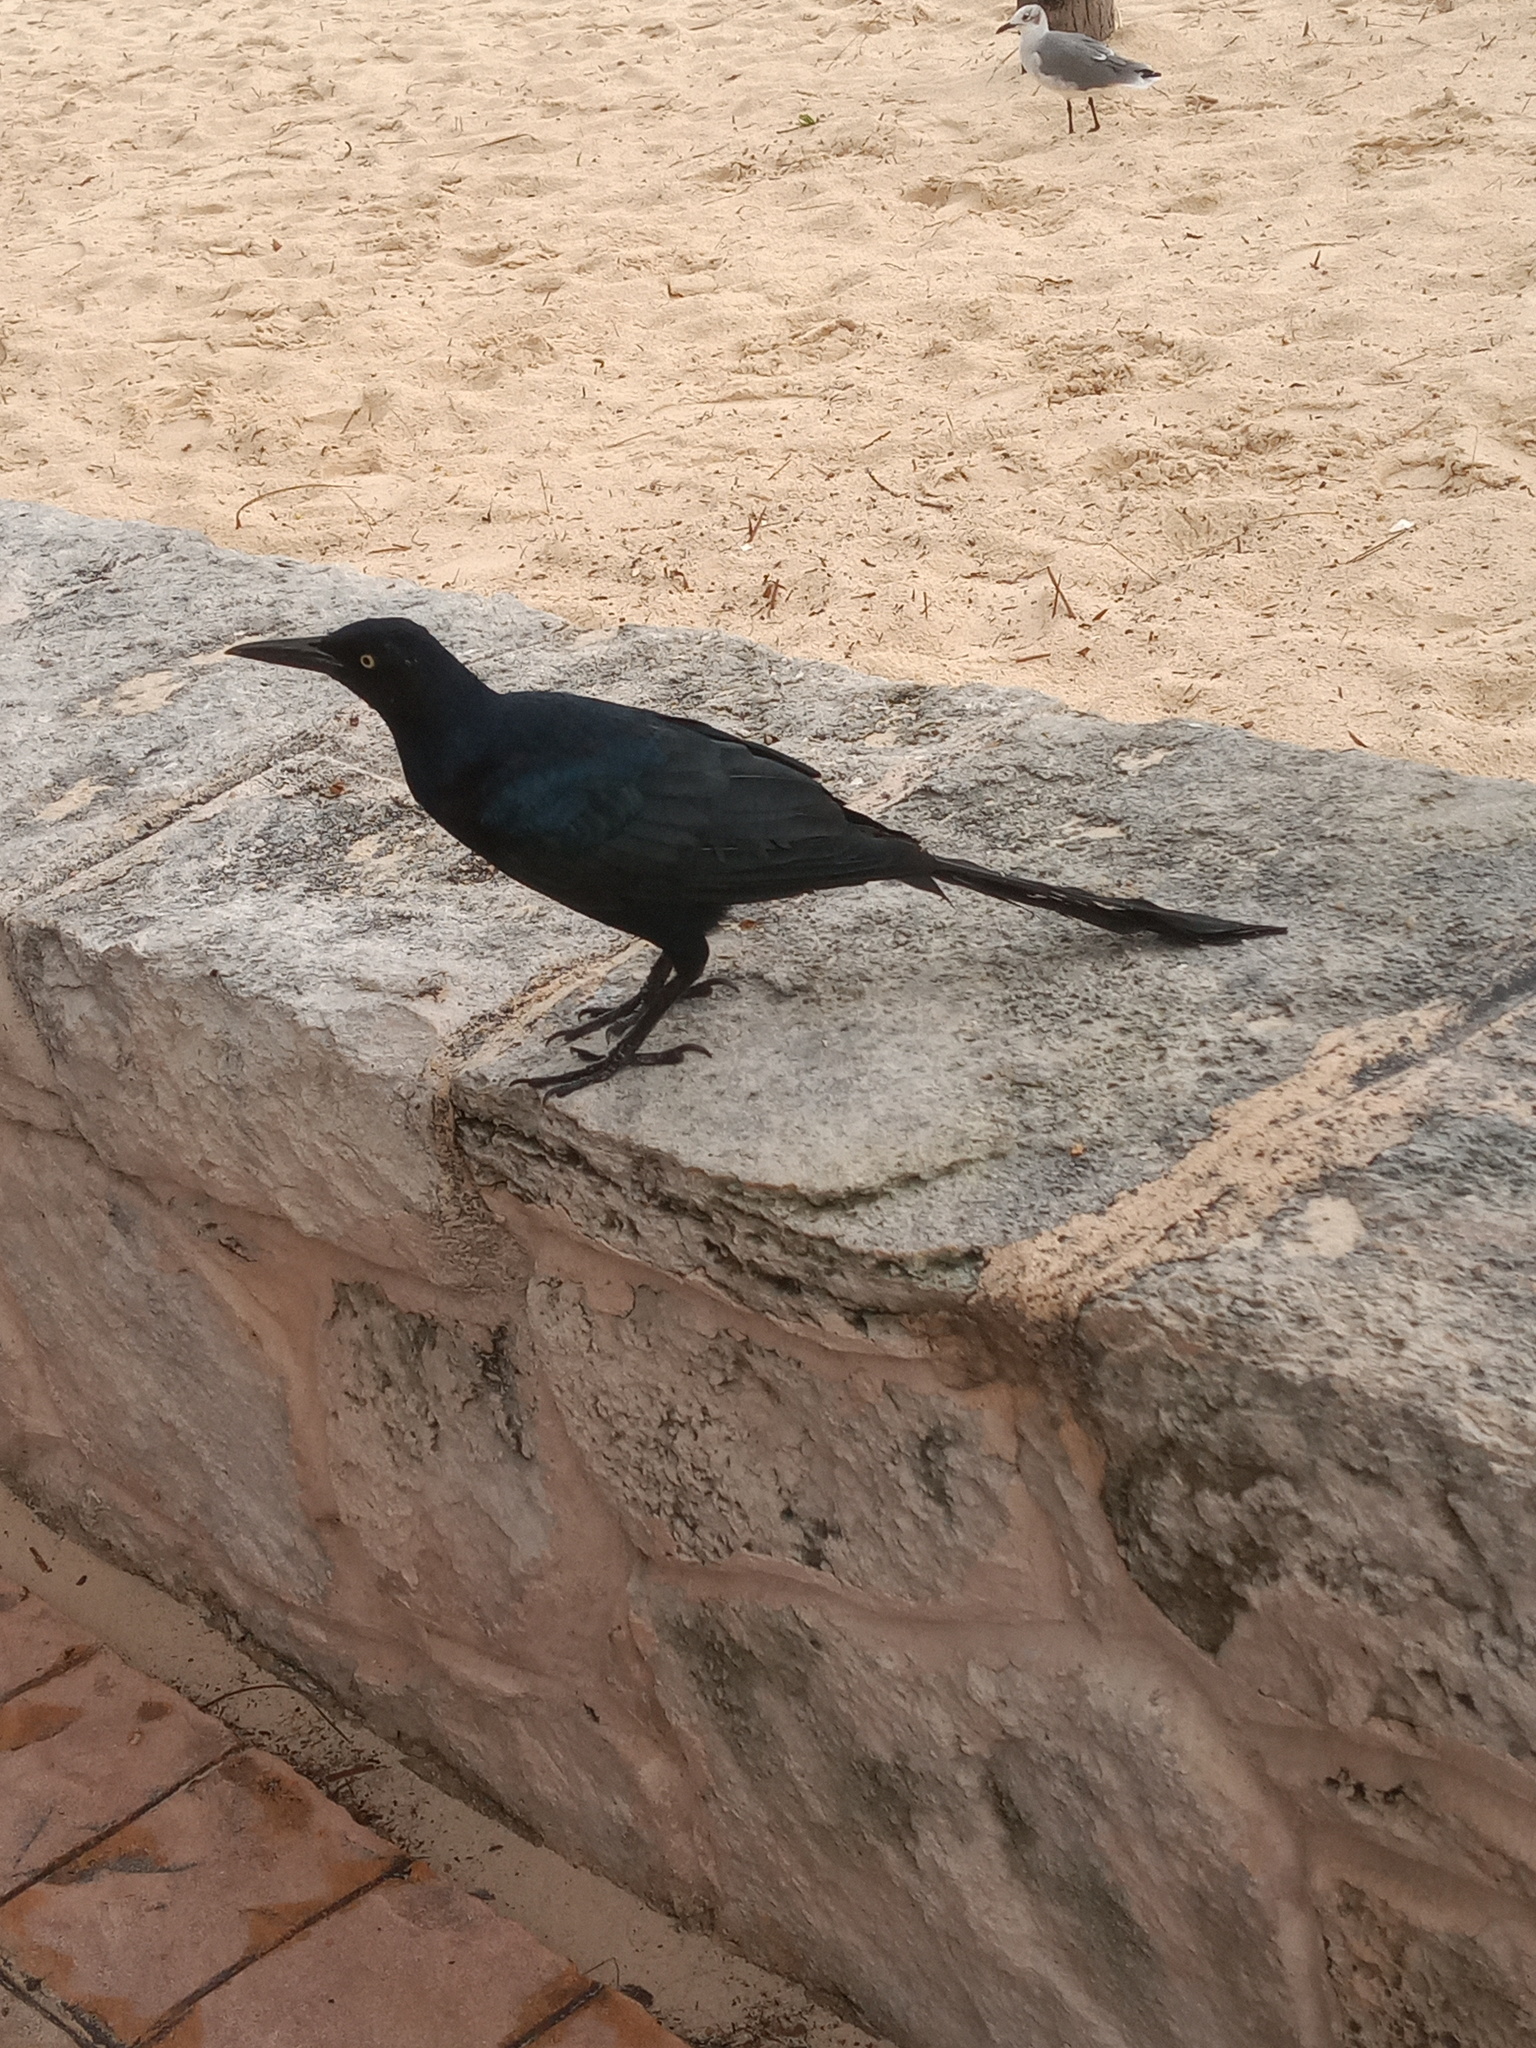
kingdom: Animalia
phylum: Chordata
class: Aves
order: Passeriformes
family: Icteridae
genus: Quiscalus
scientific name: Quiscalus mexicanus
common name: Great-tailed grackle
